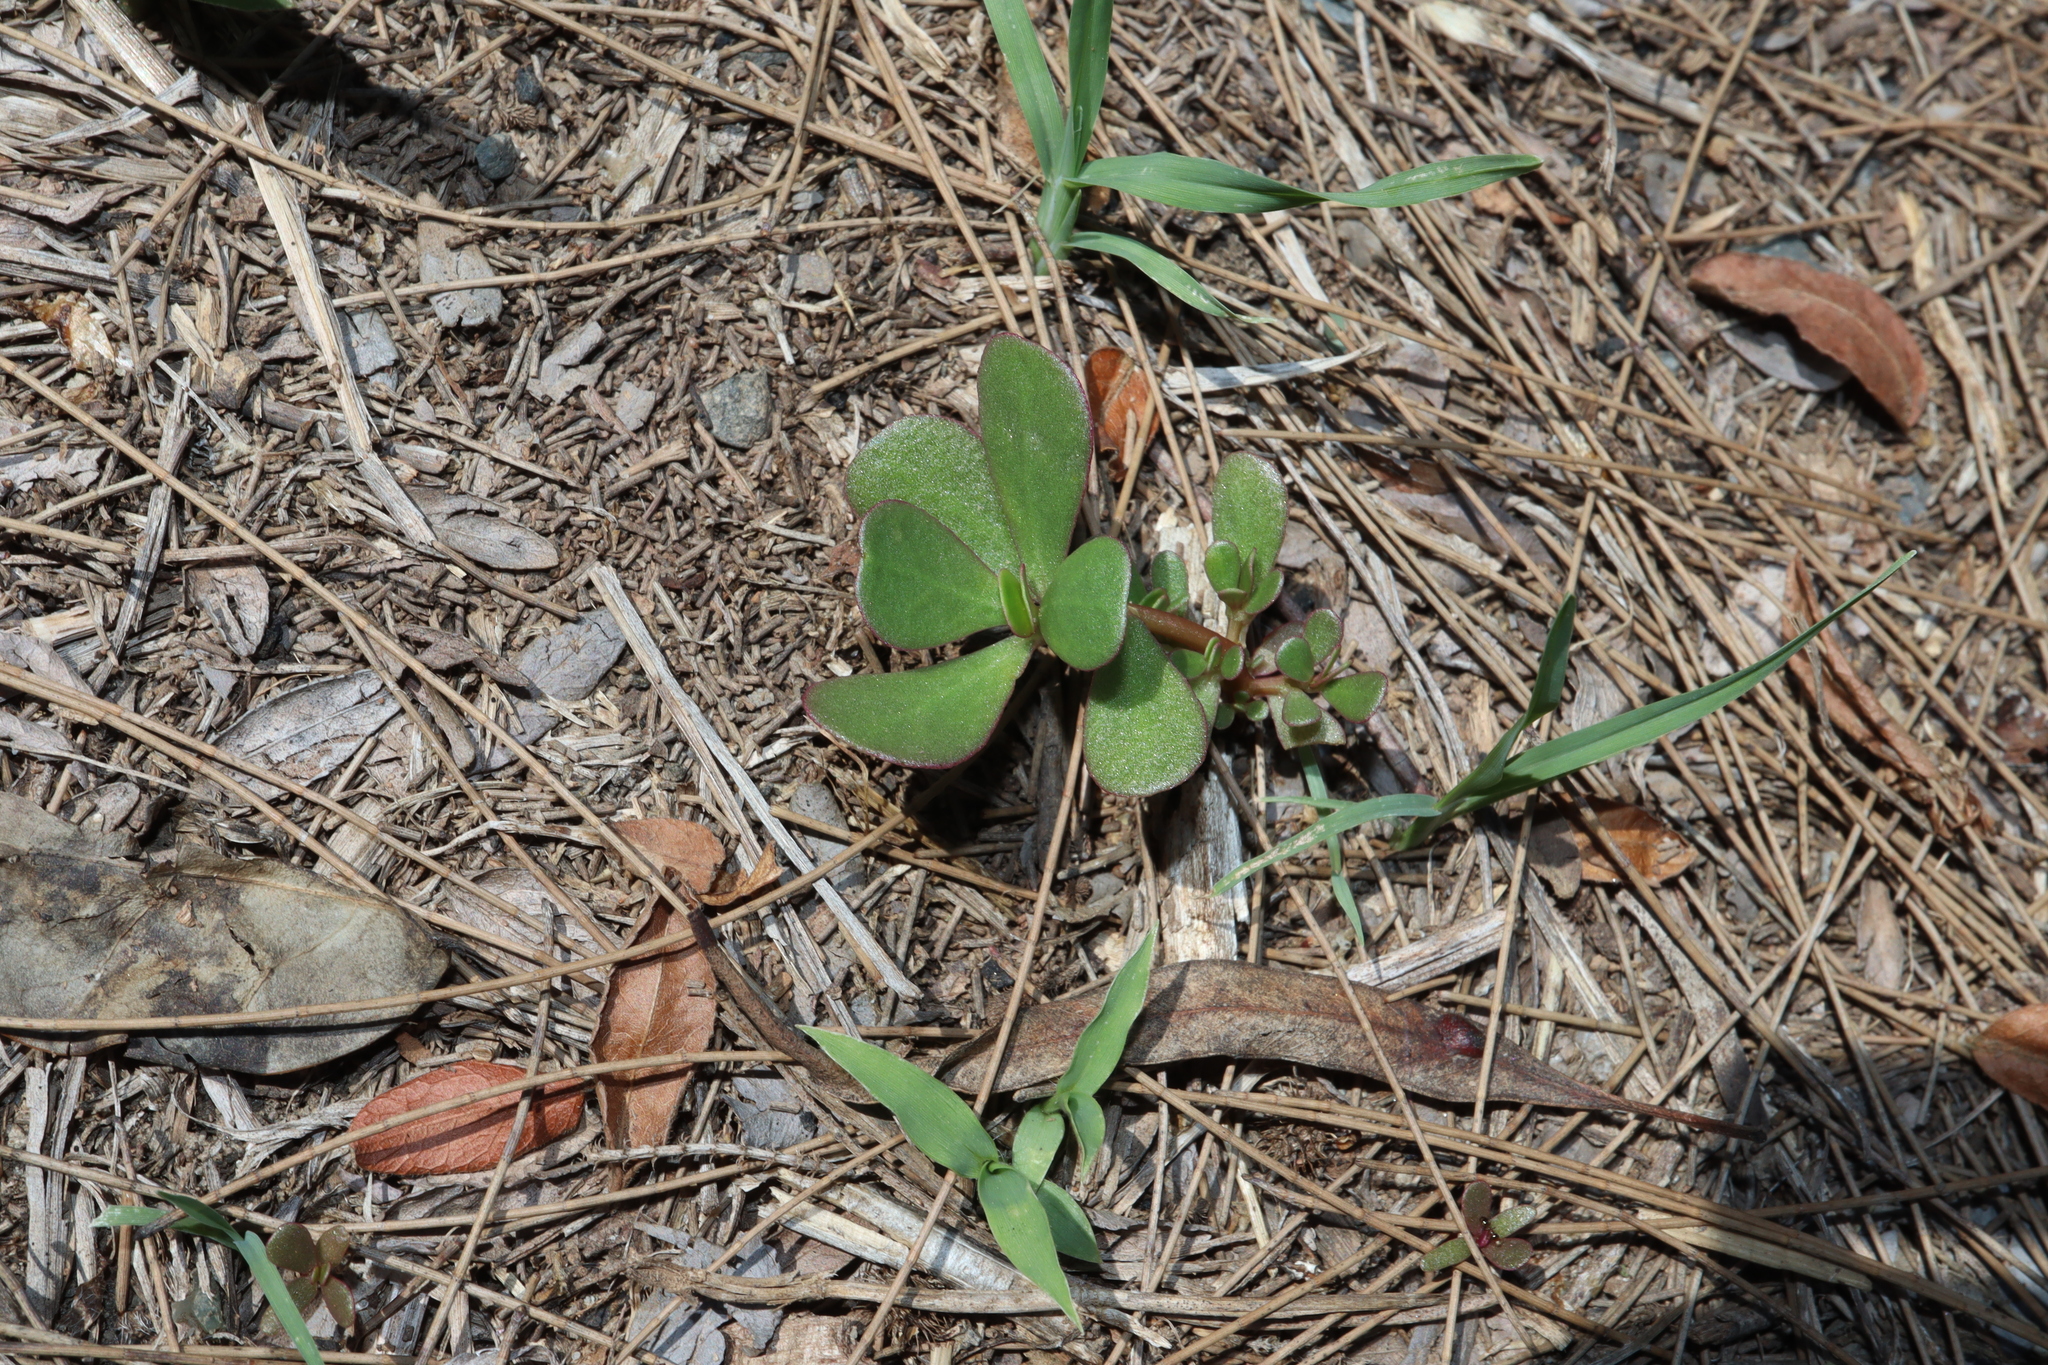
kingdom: Plantae
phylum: Tracheophyta
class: Magnoliopsida
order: Caryophyllales
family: Portulacaceae
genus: Portulaca
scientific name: Portulaca oleracea
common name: Common purslane
